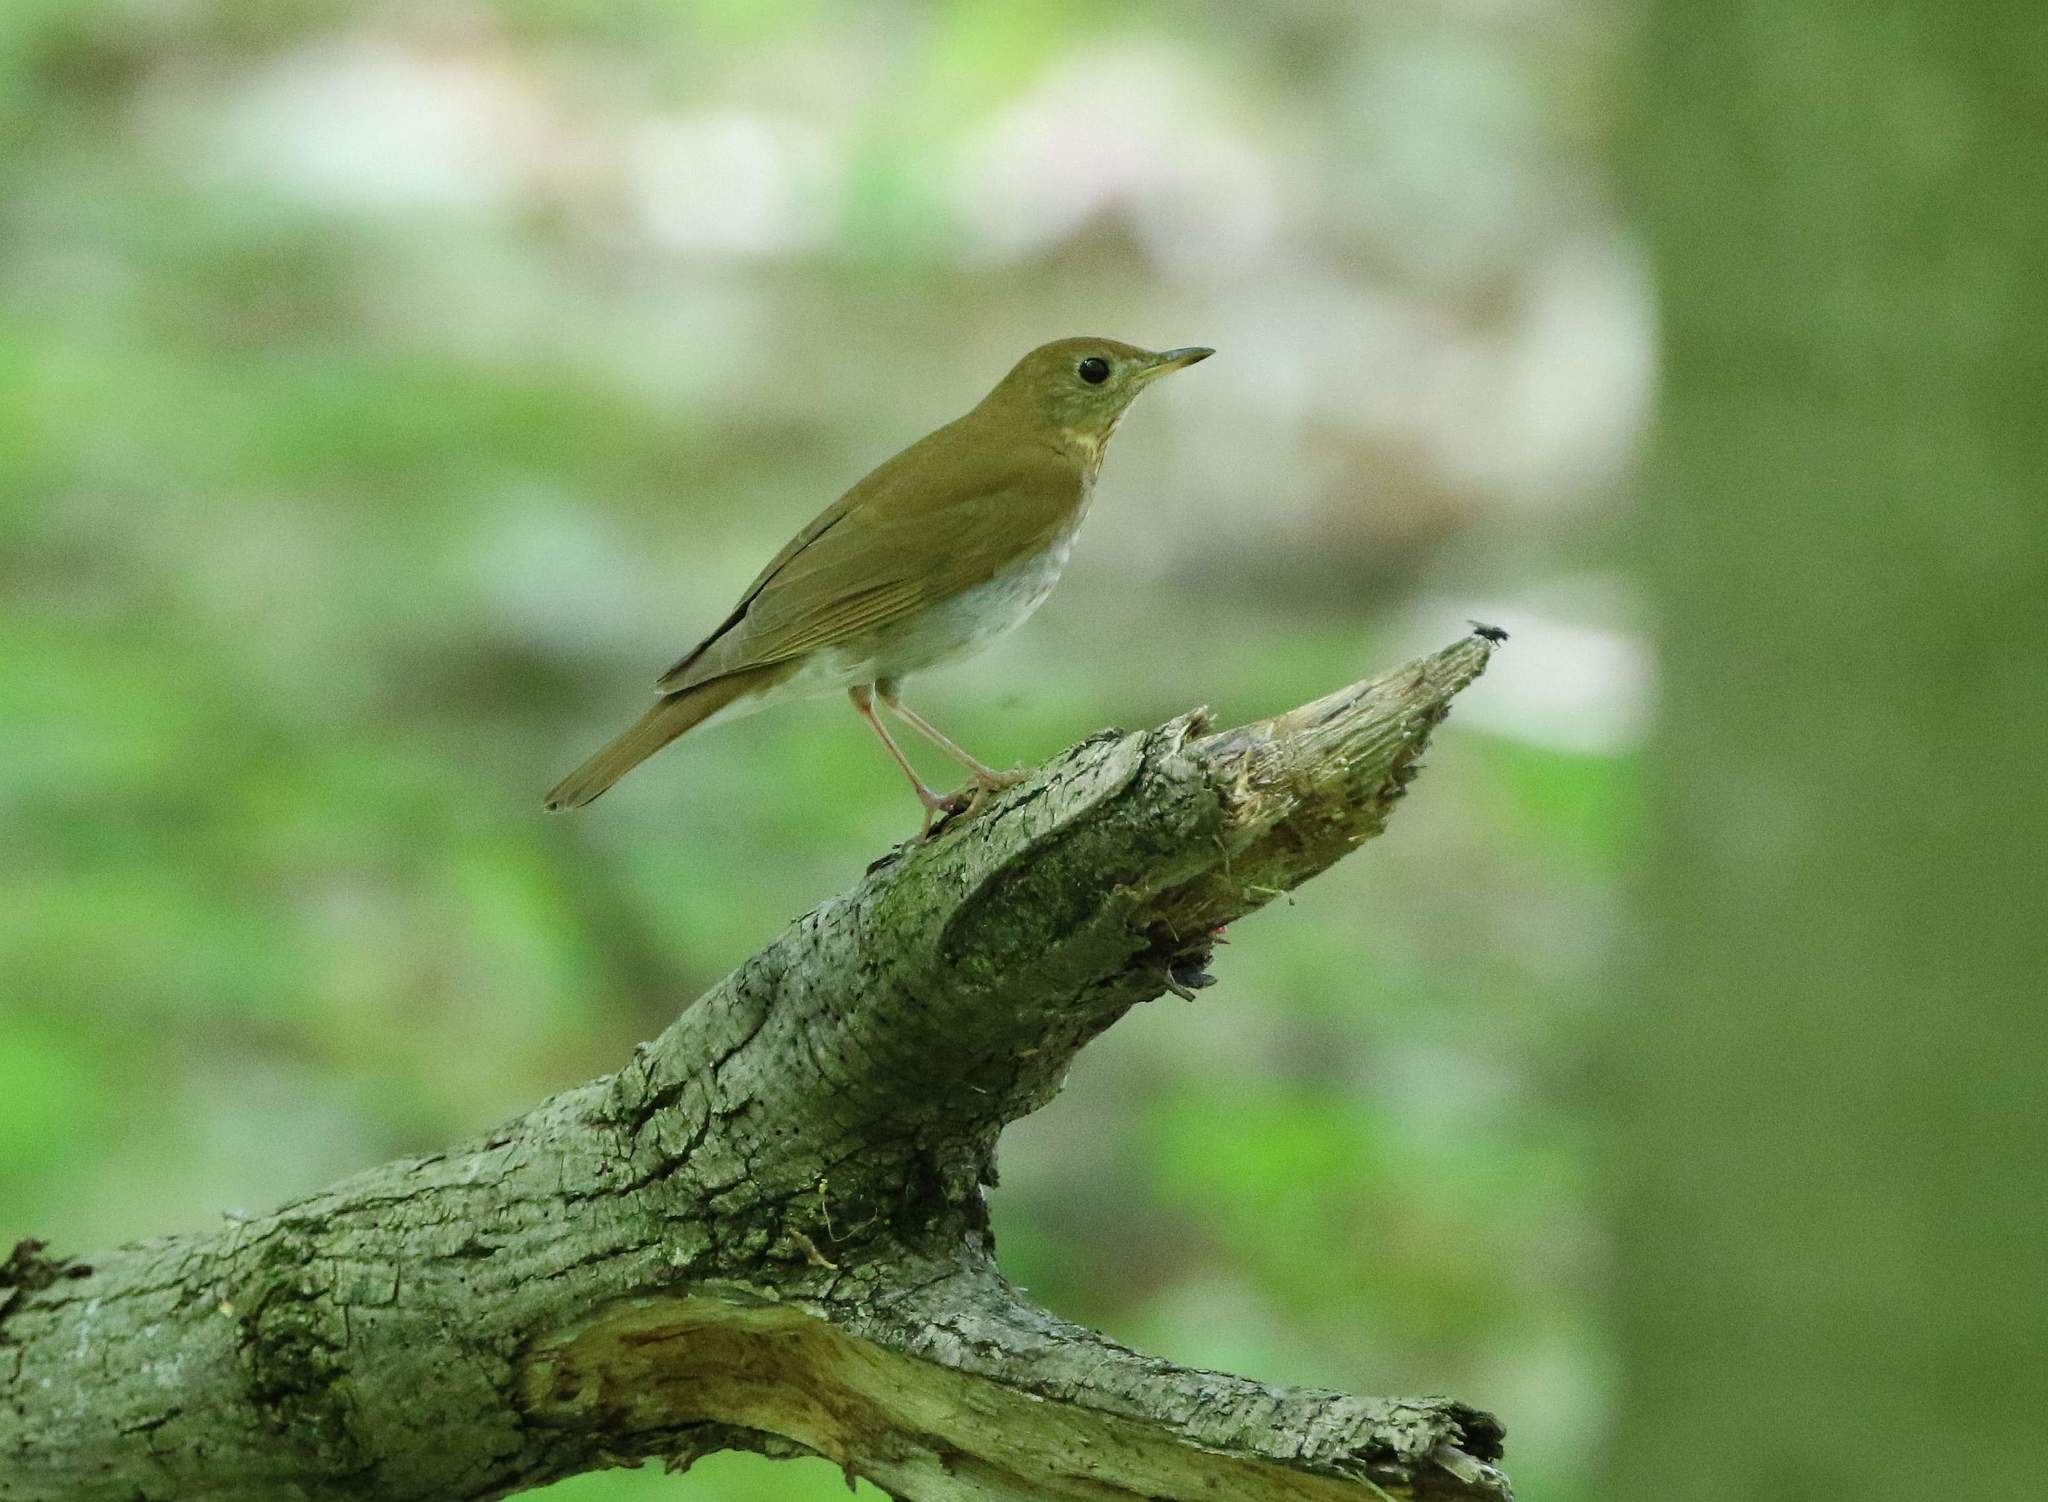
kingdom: Animalia
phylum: Chordata
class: Aves
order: Passeriformes
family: Turdidae
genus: Catharus
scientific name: Catharus fuscescens
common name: Veery
